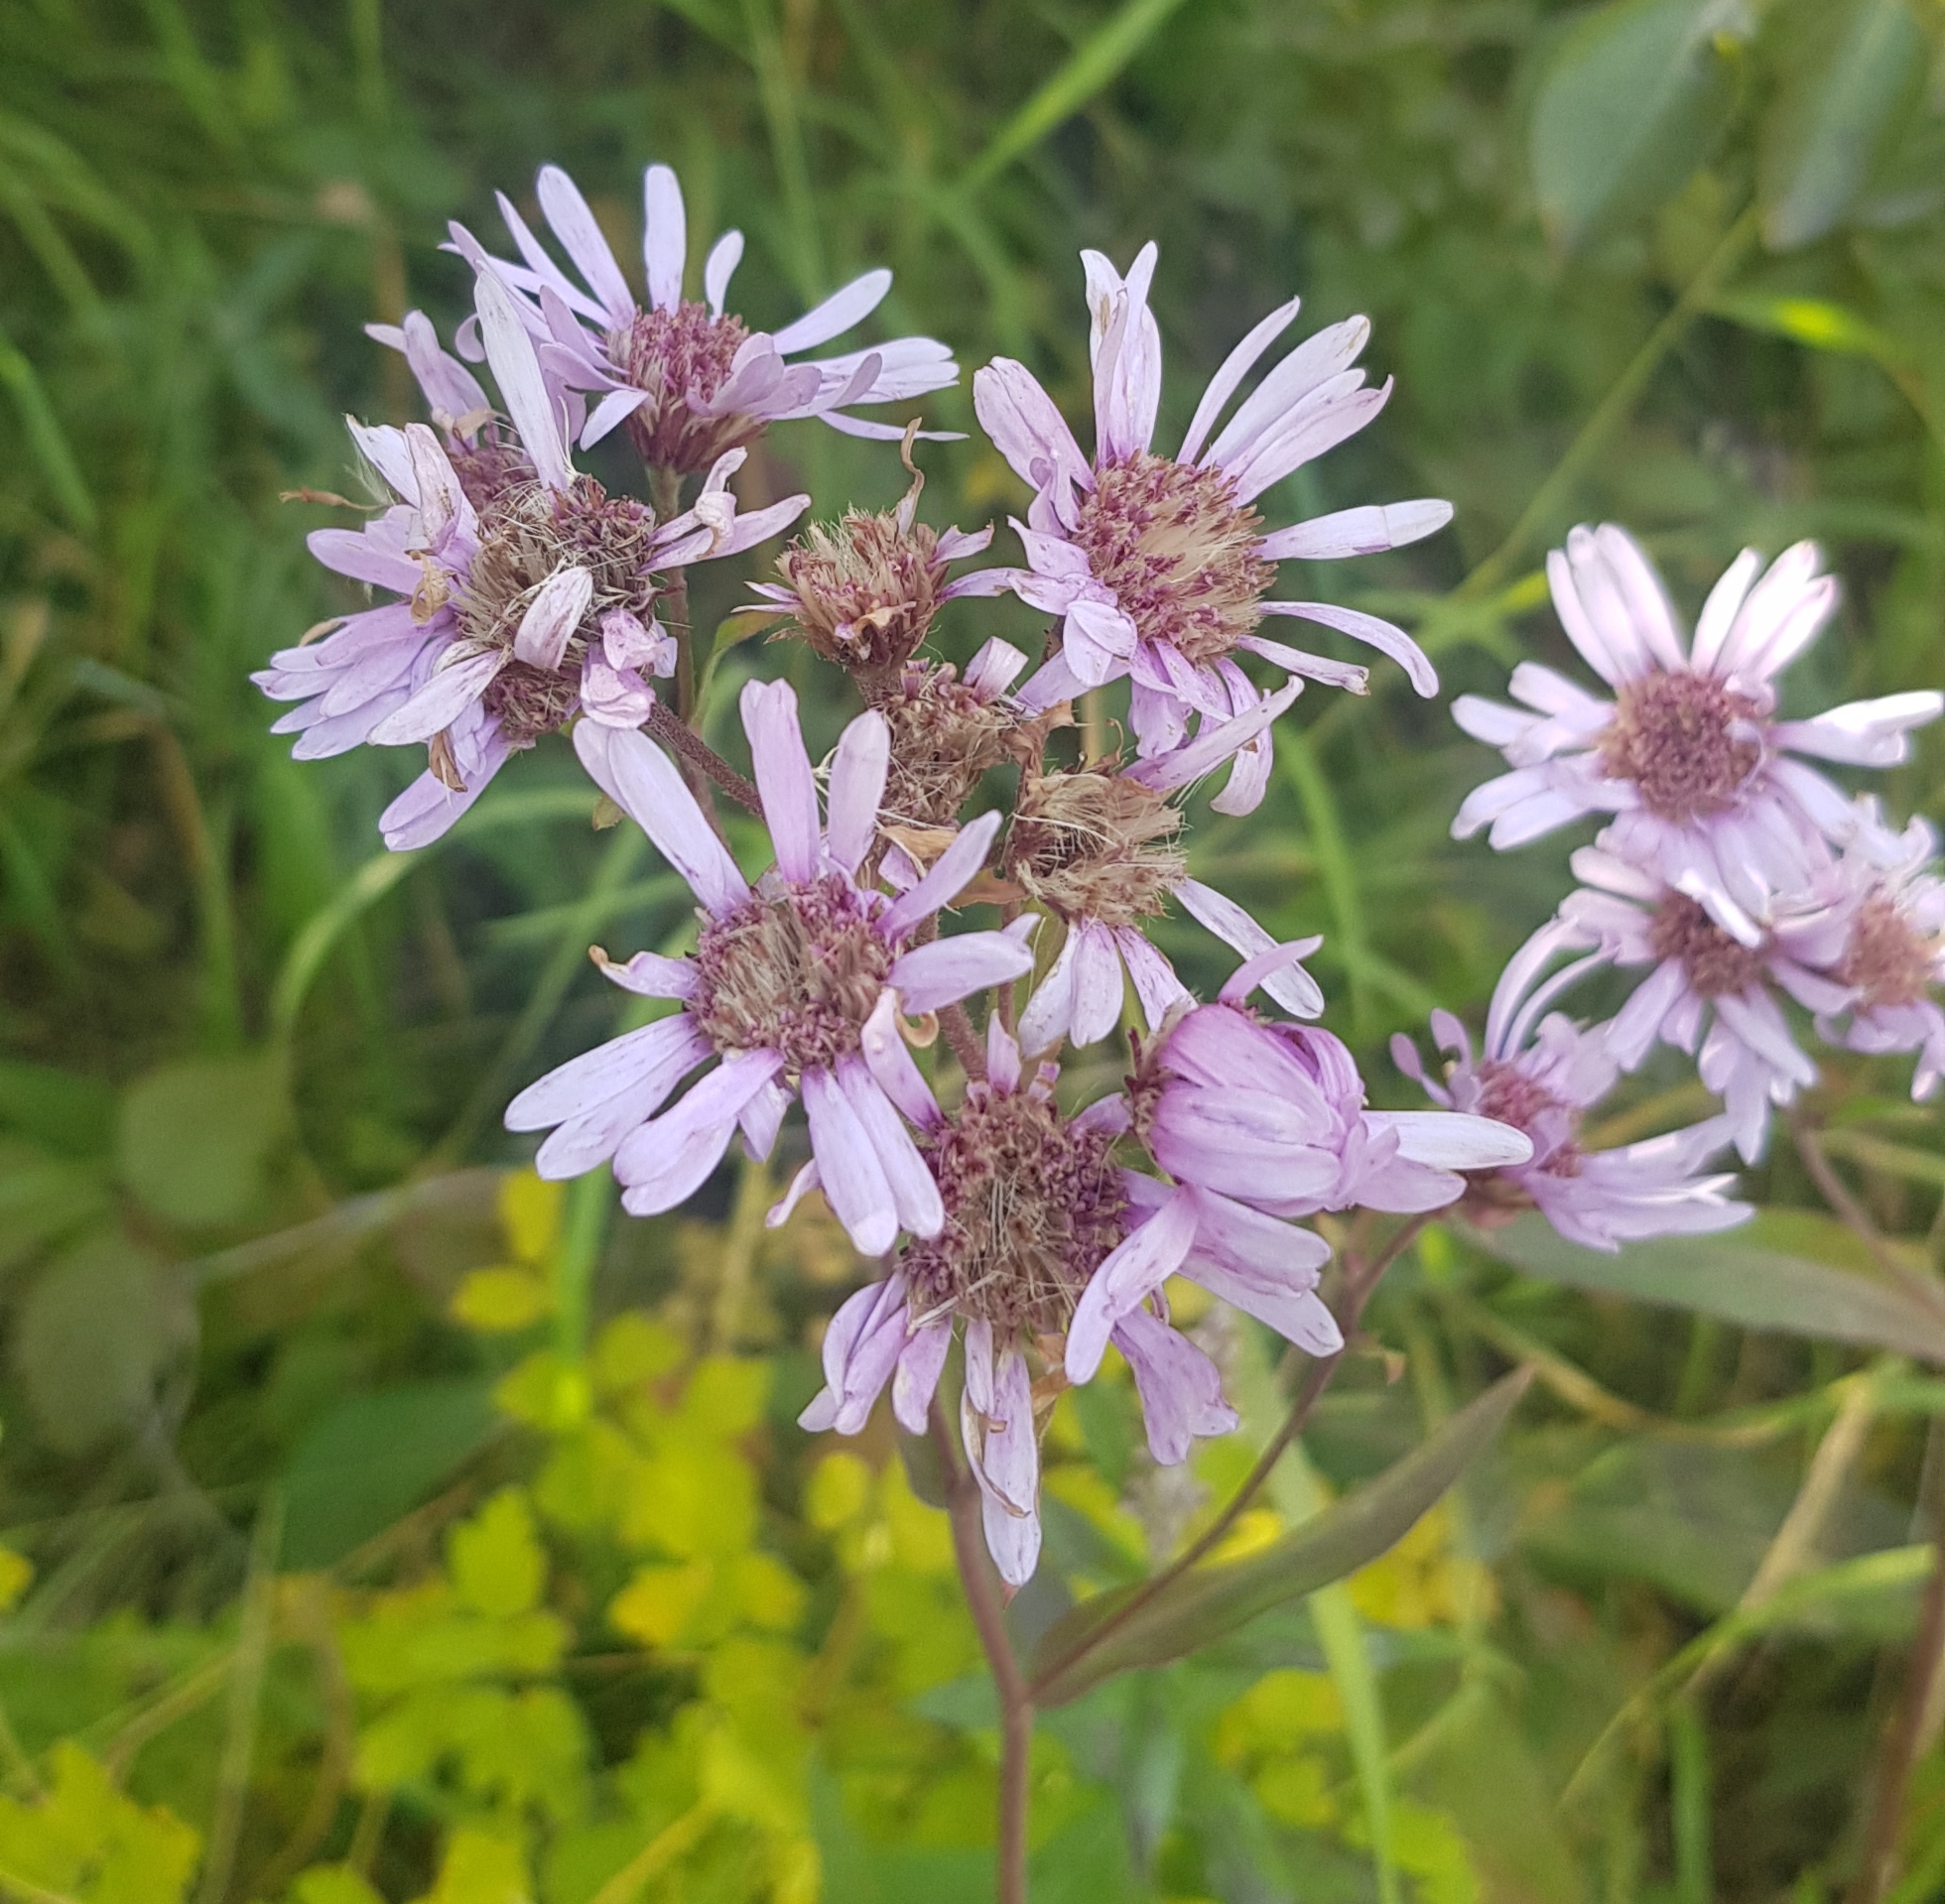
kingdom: Plantae
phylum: Tracheophyta
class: Magnoliopsida
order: Asterales
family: Asteraceae
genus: Aster
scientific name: Aster tataricus
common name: Tatarian aster
